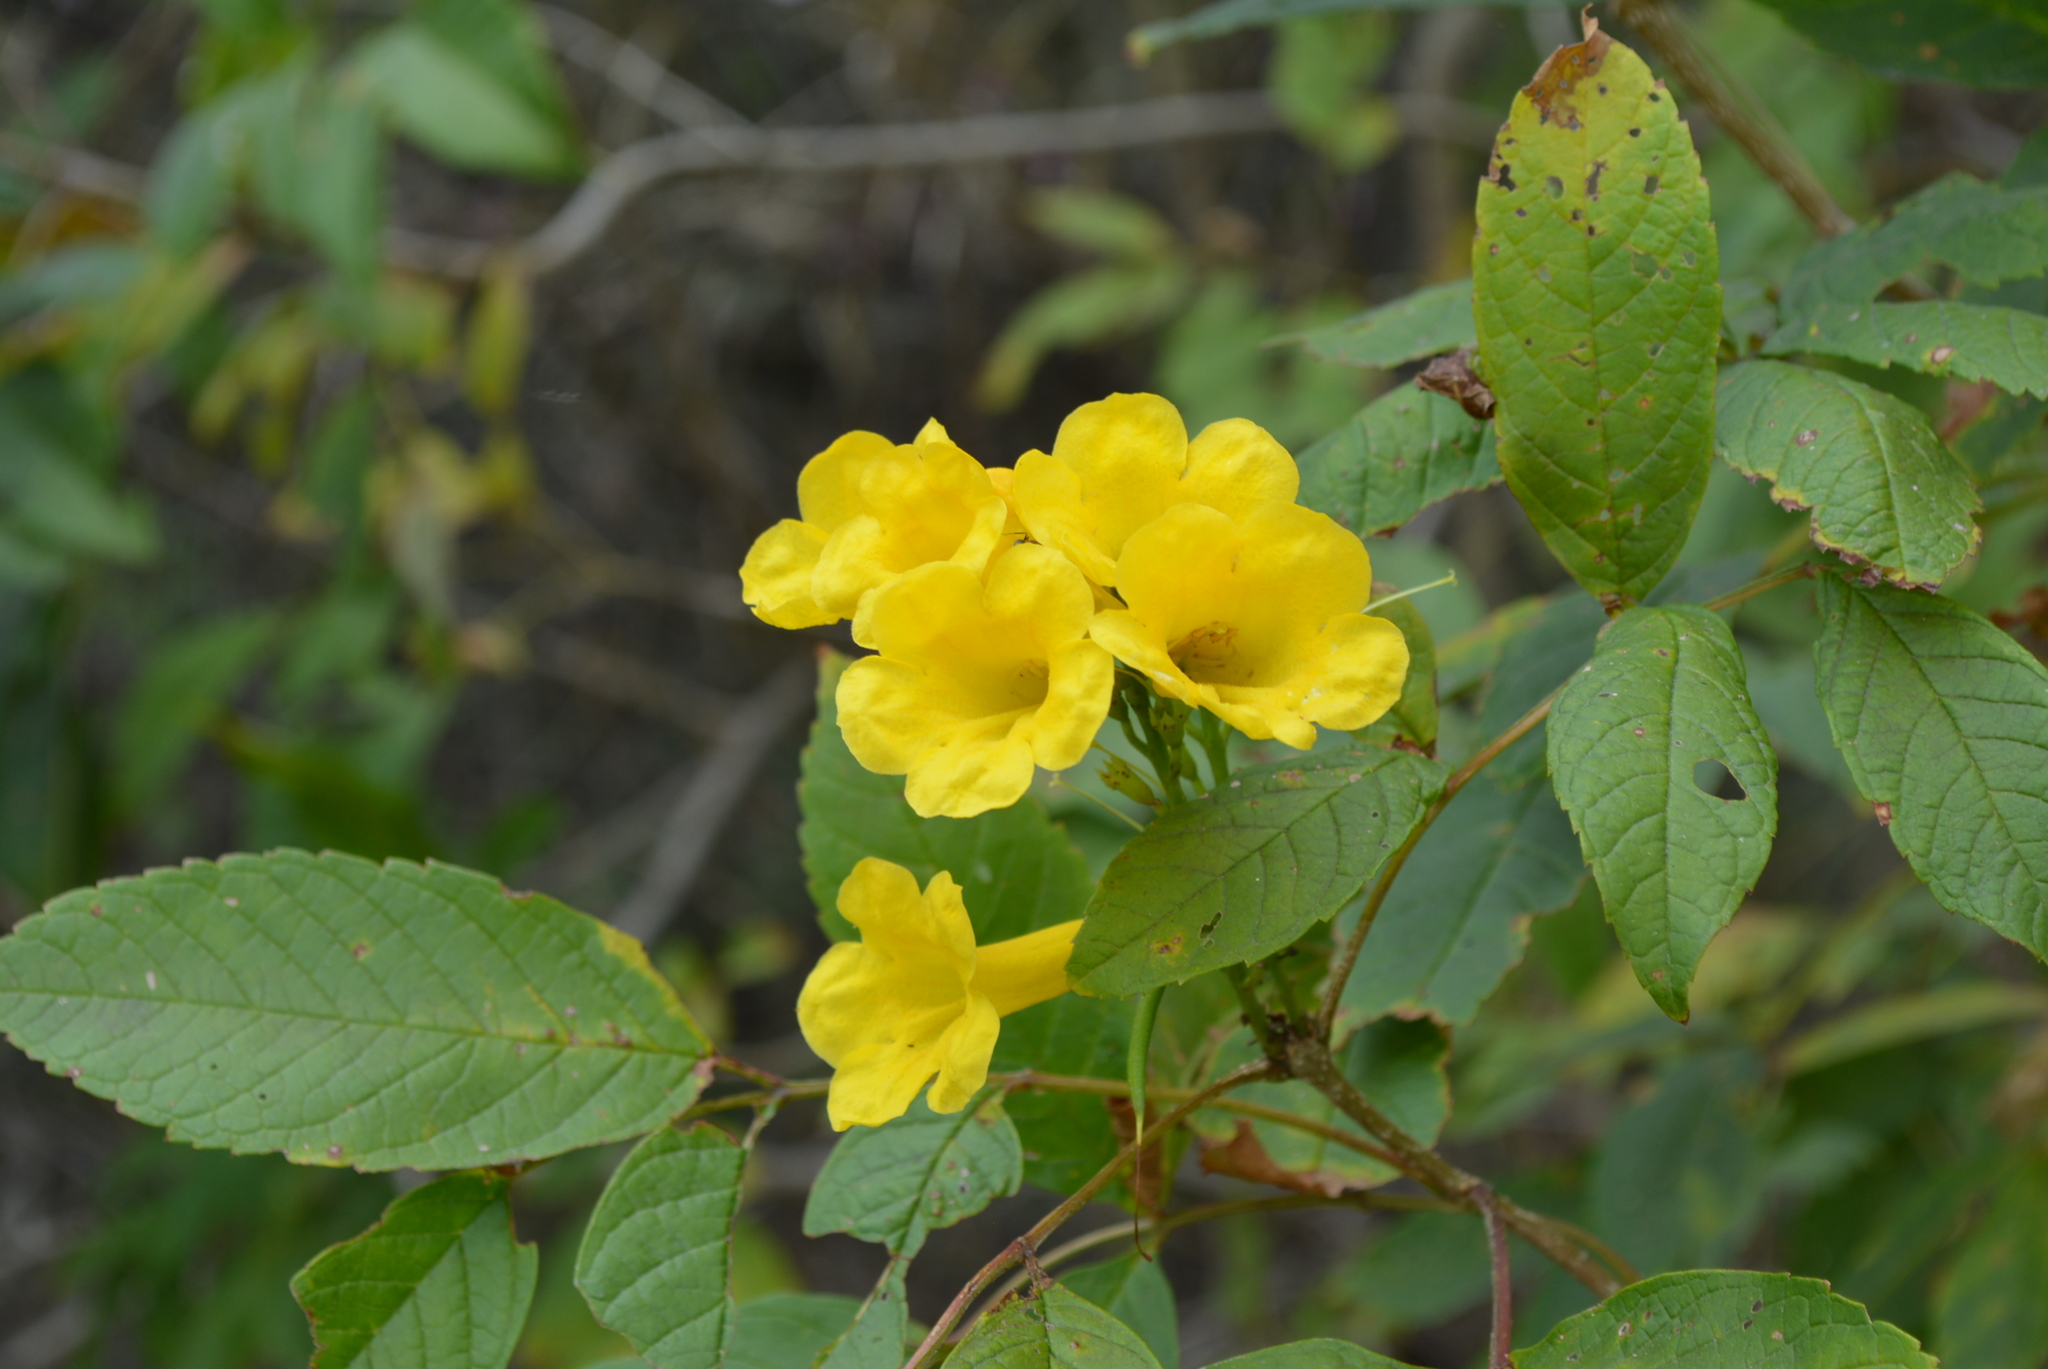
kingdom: Plantae
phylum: Tracheophyta
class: Magnoliopsida
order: Lamiales
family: Bignoniaceae
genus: Tecoma
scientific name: Tecoma stans
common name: Yellow trumpetbush
